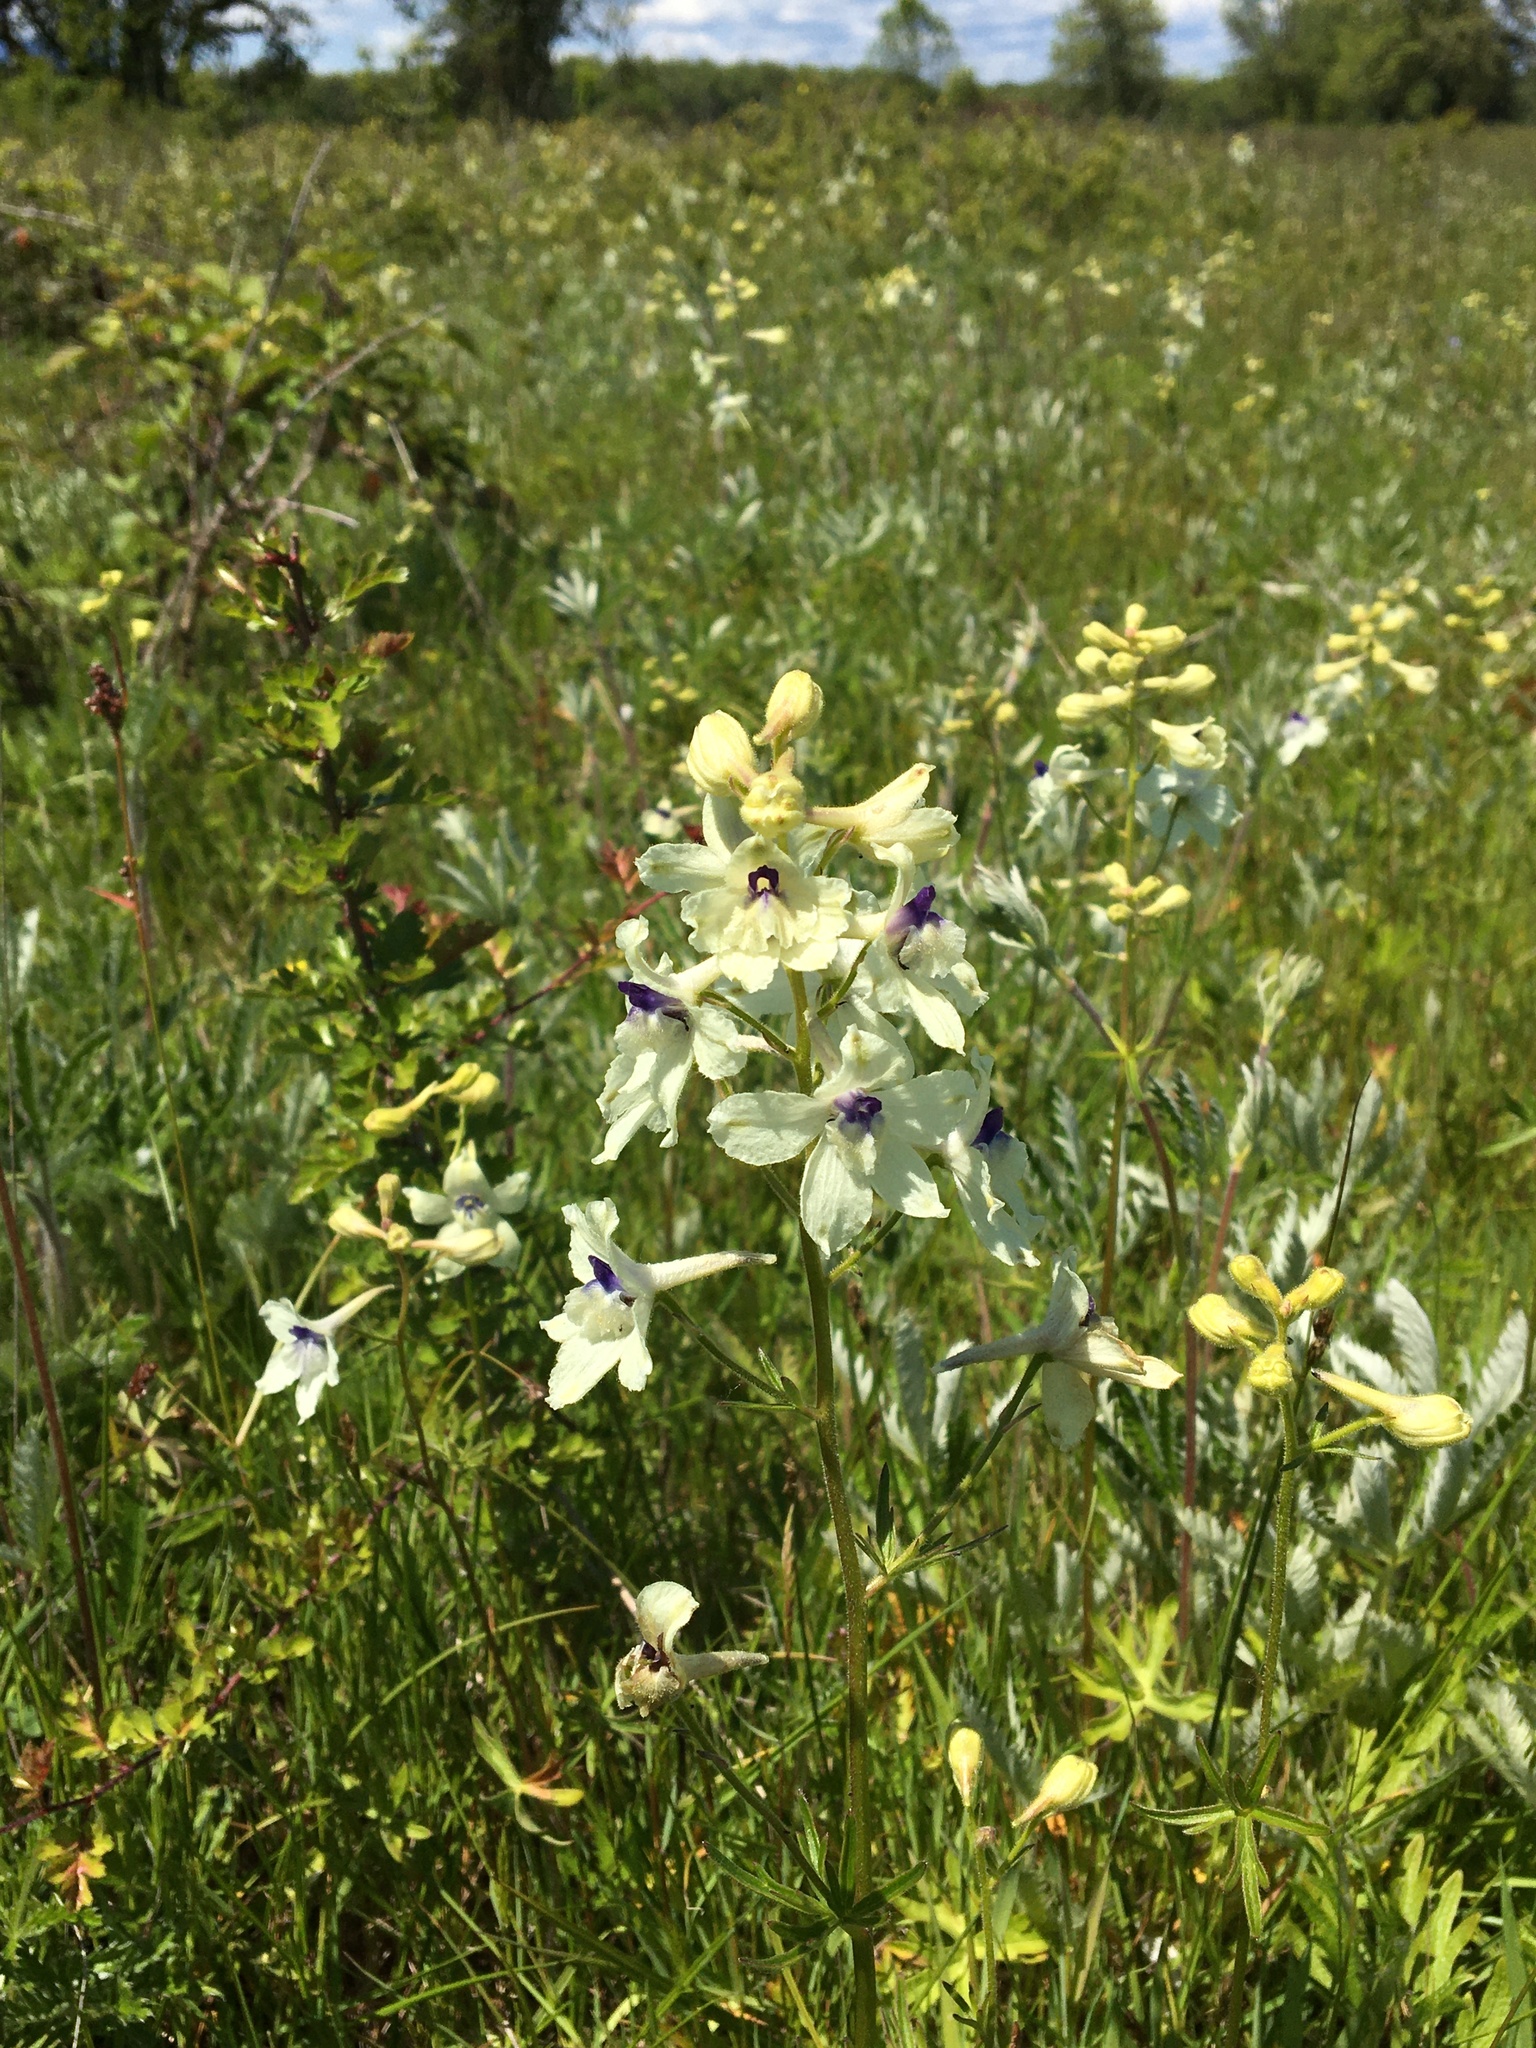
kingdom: Plantae
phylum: Tracheophyta
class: Magnoliopsida
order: Ranunculales
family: Ranunculaceae
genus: Delphinium
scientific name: Delphinium pavonaceum
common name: Peacock larkspur
